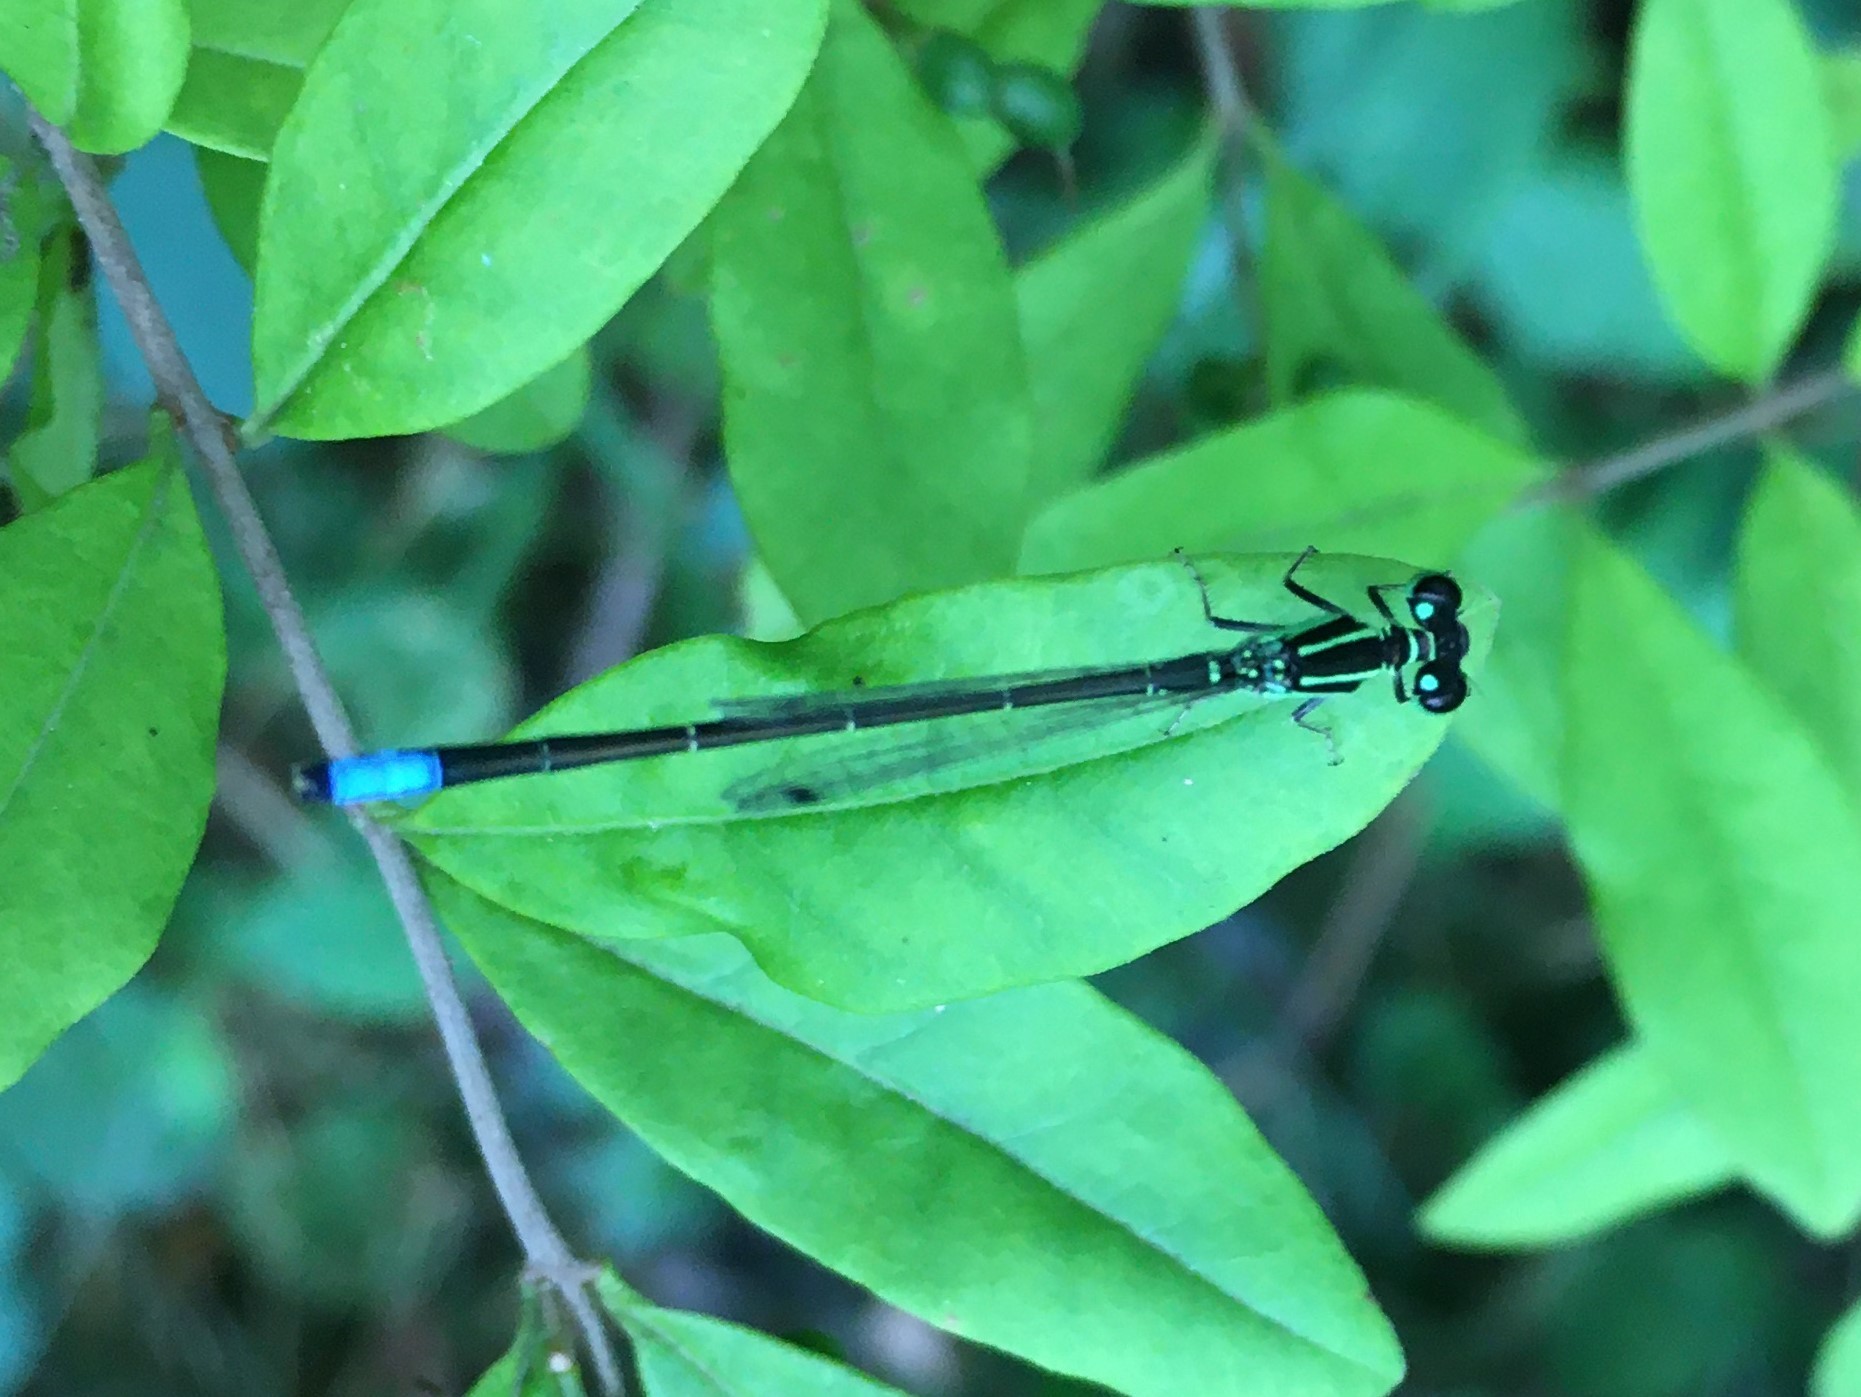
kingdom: Animalia
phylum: Arthropoda
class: Insecta
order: Odonata
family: Coenagrionidae
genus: Ischnura
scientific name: Ischnura verticalis
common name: Eastern forktail
